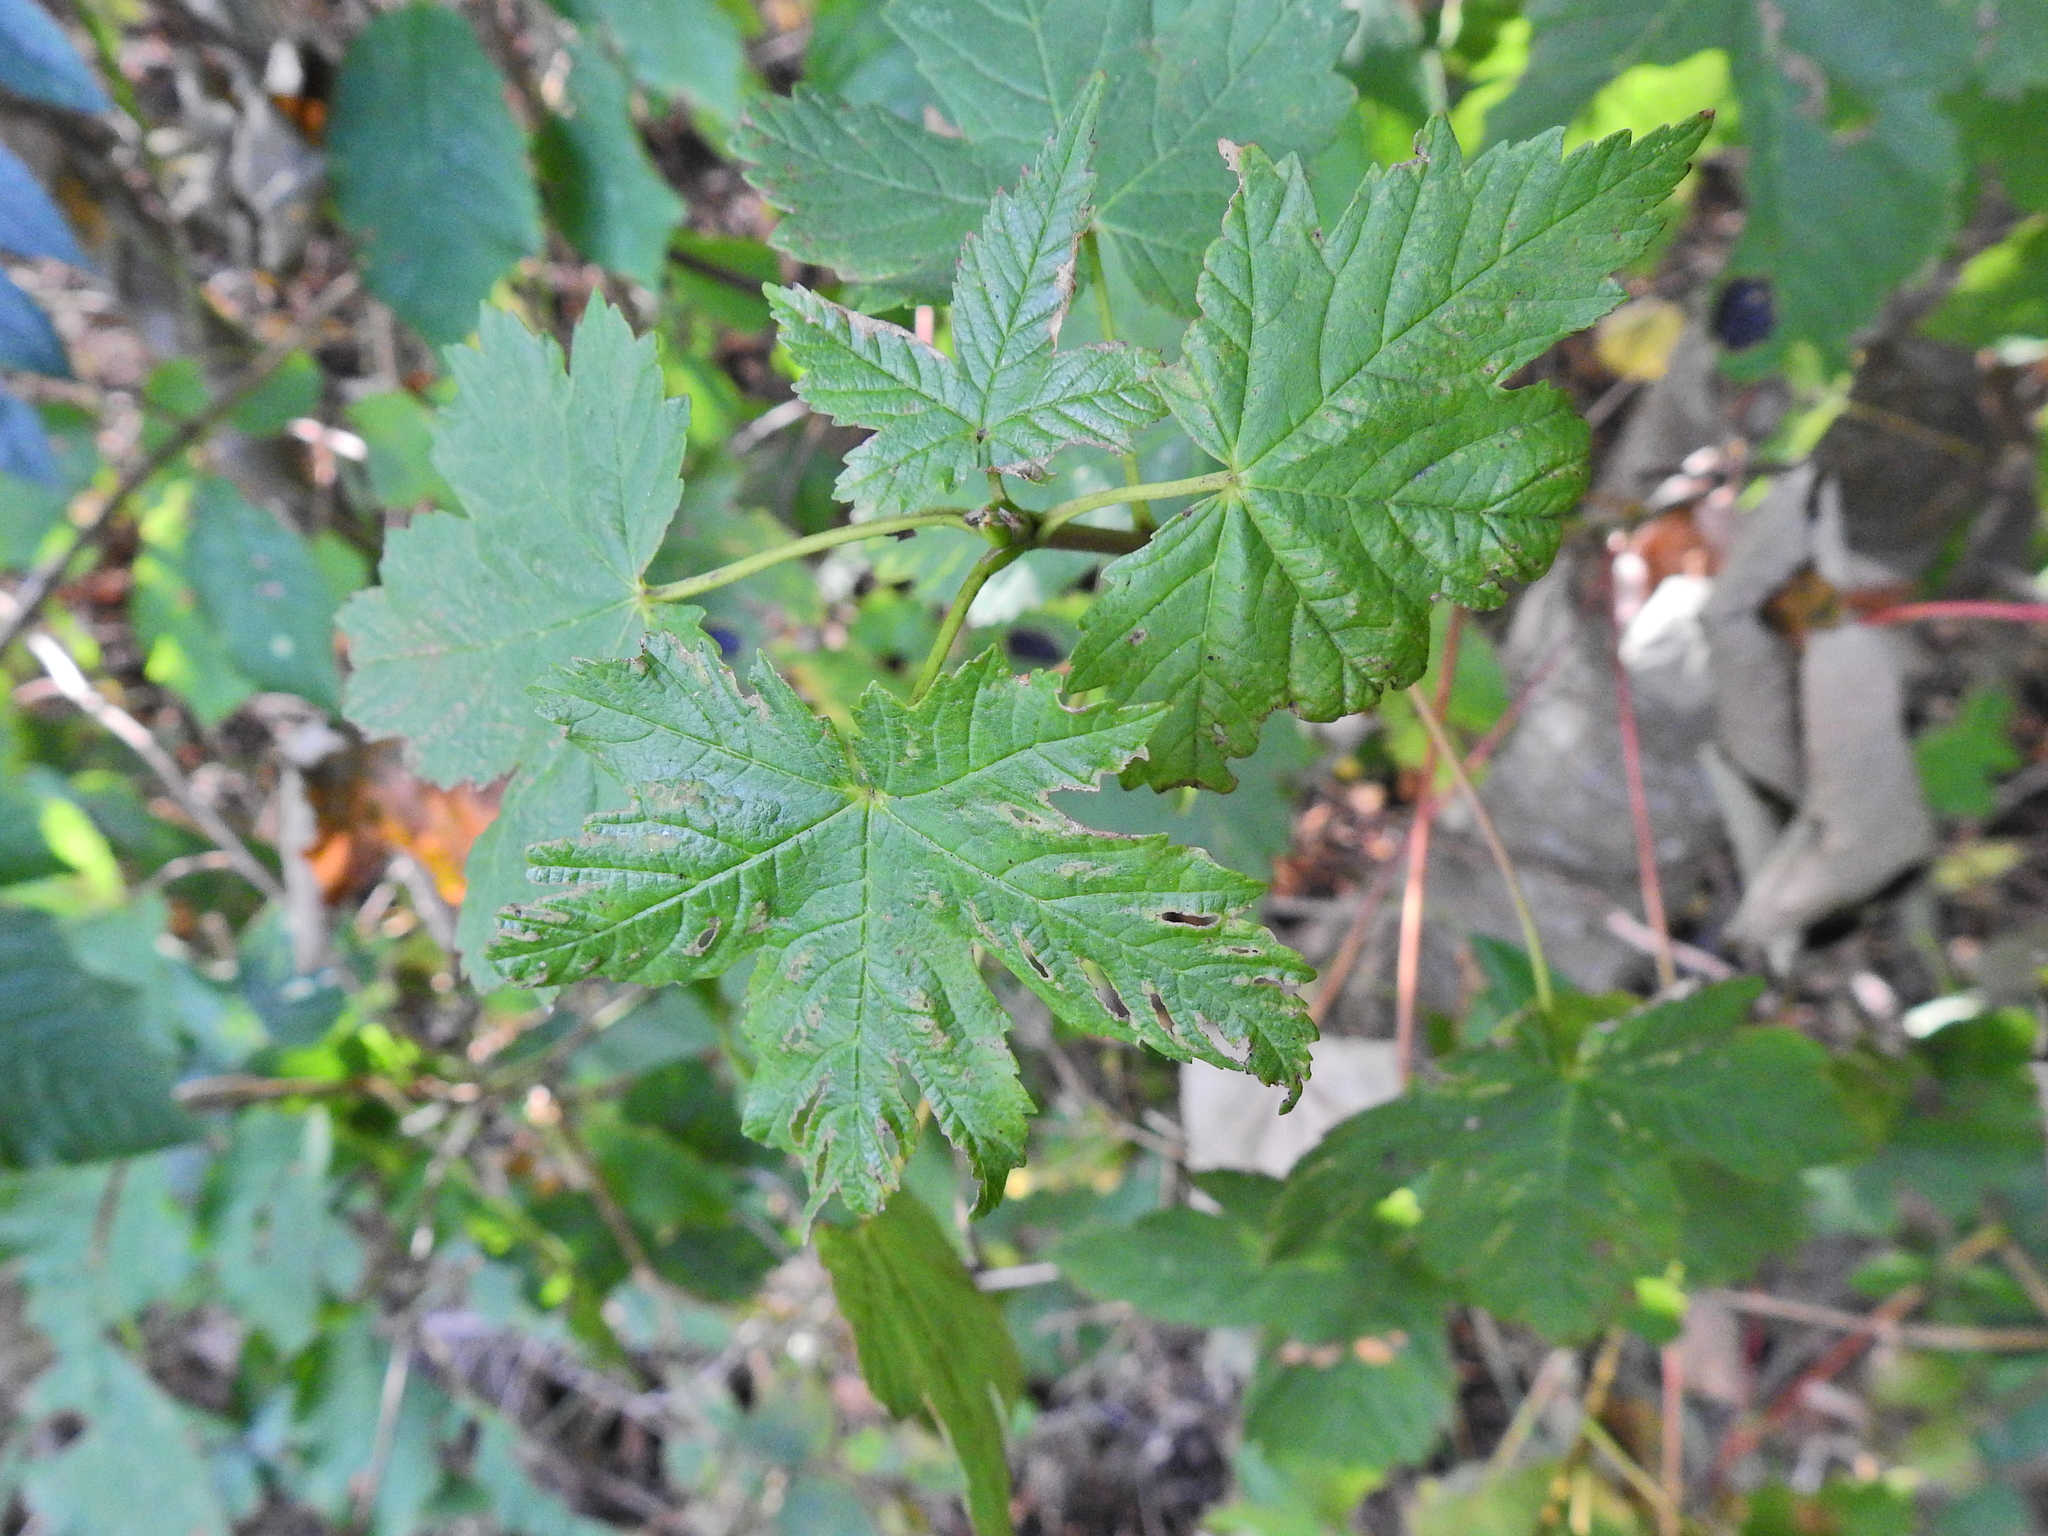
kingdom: Plantae
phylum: Tracheophyta
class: Magnoliopsida
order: Sapindales
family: Sapindaceae
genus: Acer
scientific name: Acer pseudoplatanus
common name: Sycamore
